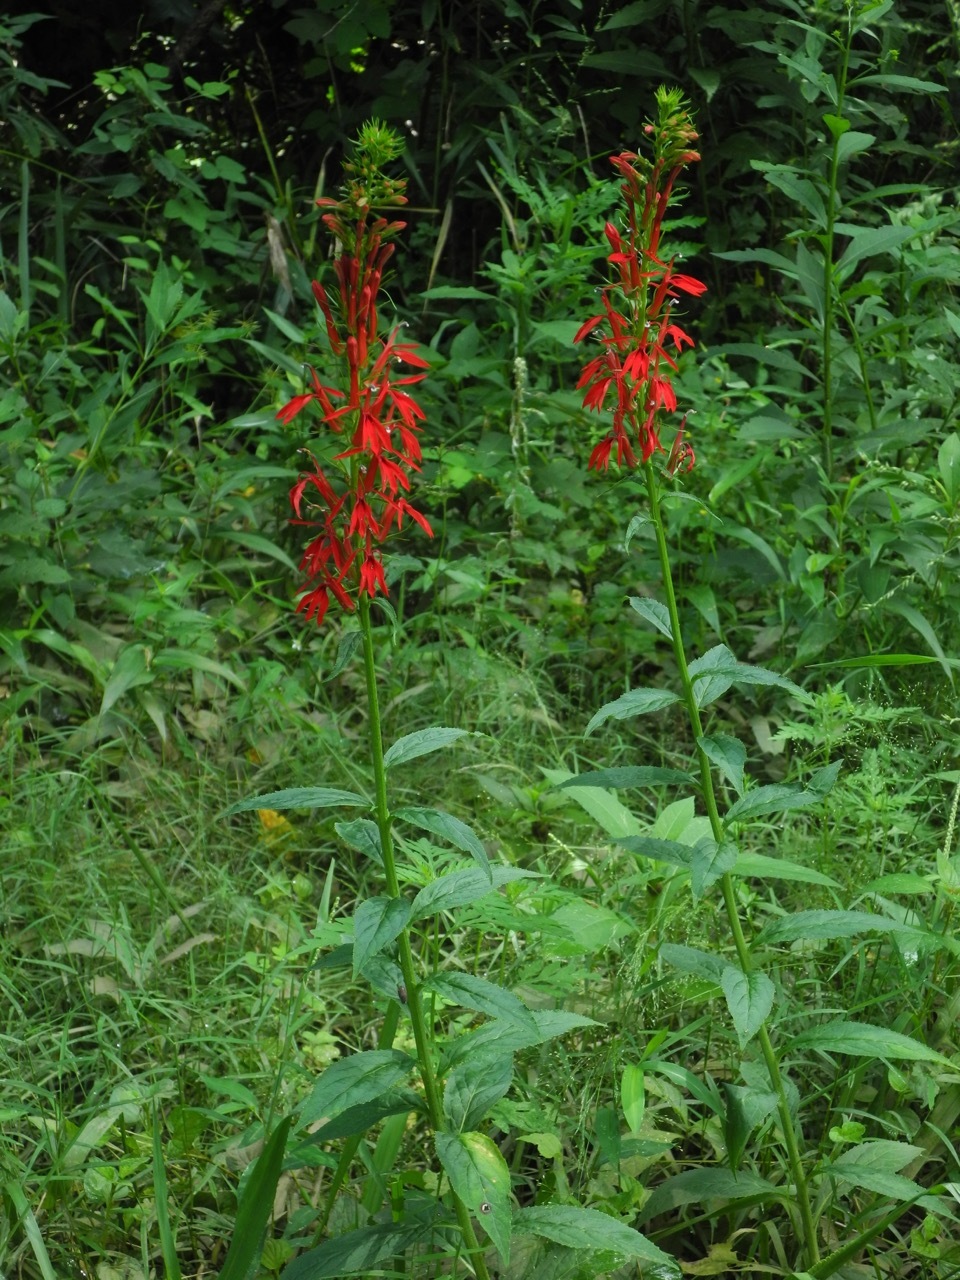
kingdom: Plantae
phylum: Tracheophyta
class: Magnoliopsida
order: Asterales
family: Campanulaceae
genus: Lobelia
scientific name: Lobelia cardinalis
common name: Cardinal flower
